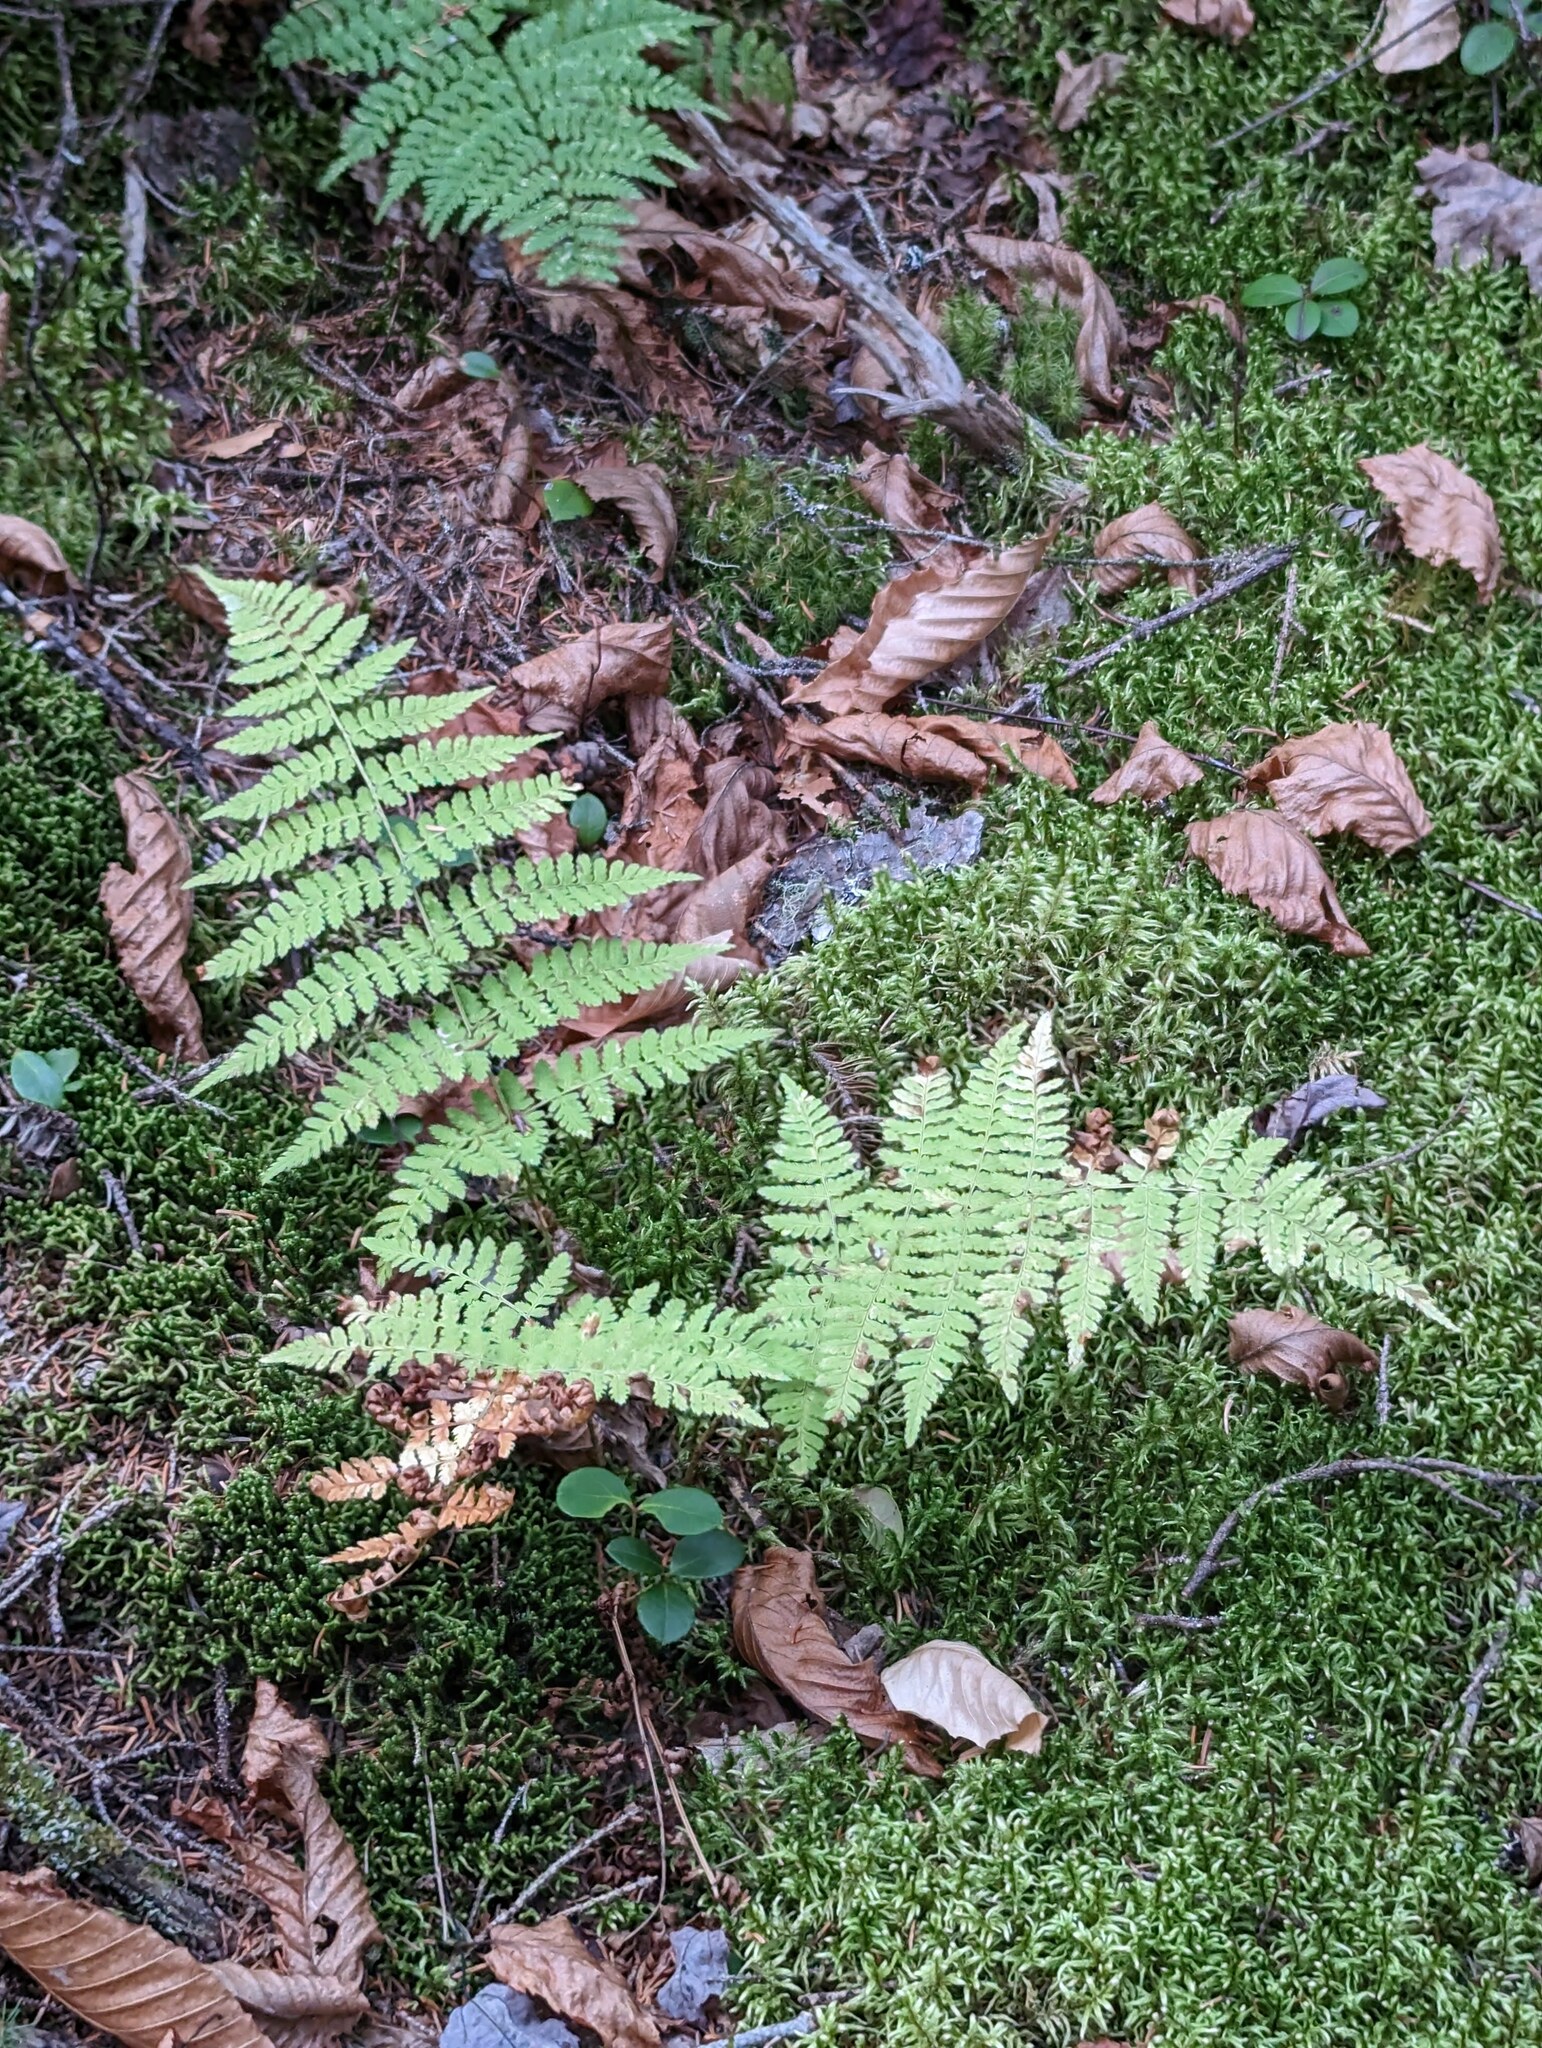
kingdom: Plantae
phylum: Tracheophyta
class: Polypodiopsida
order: Polypodiales
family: Dryopteridaceae
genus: Dryopteris
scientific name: Dryopteris intermedia
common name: Evergreen wood fern
